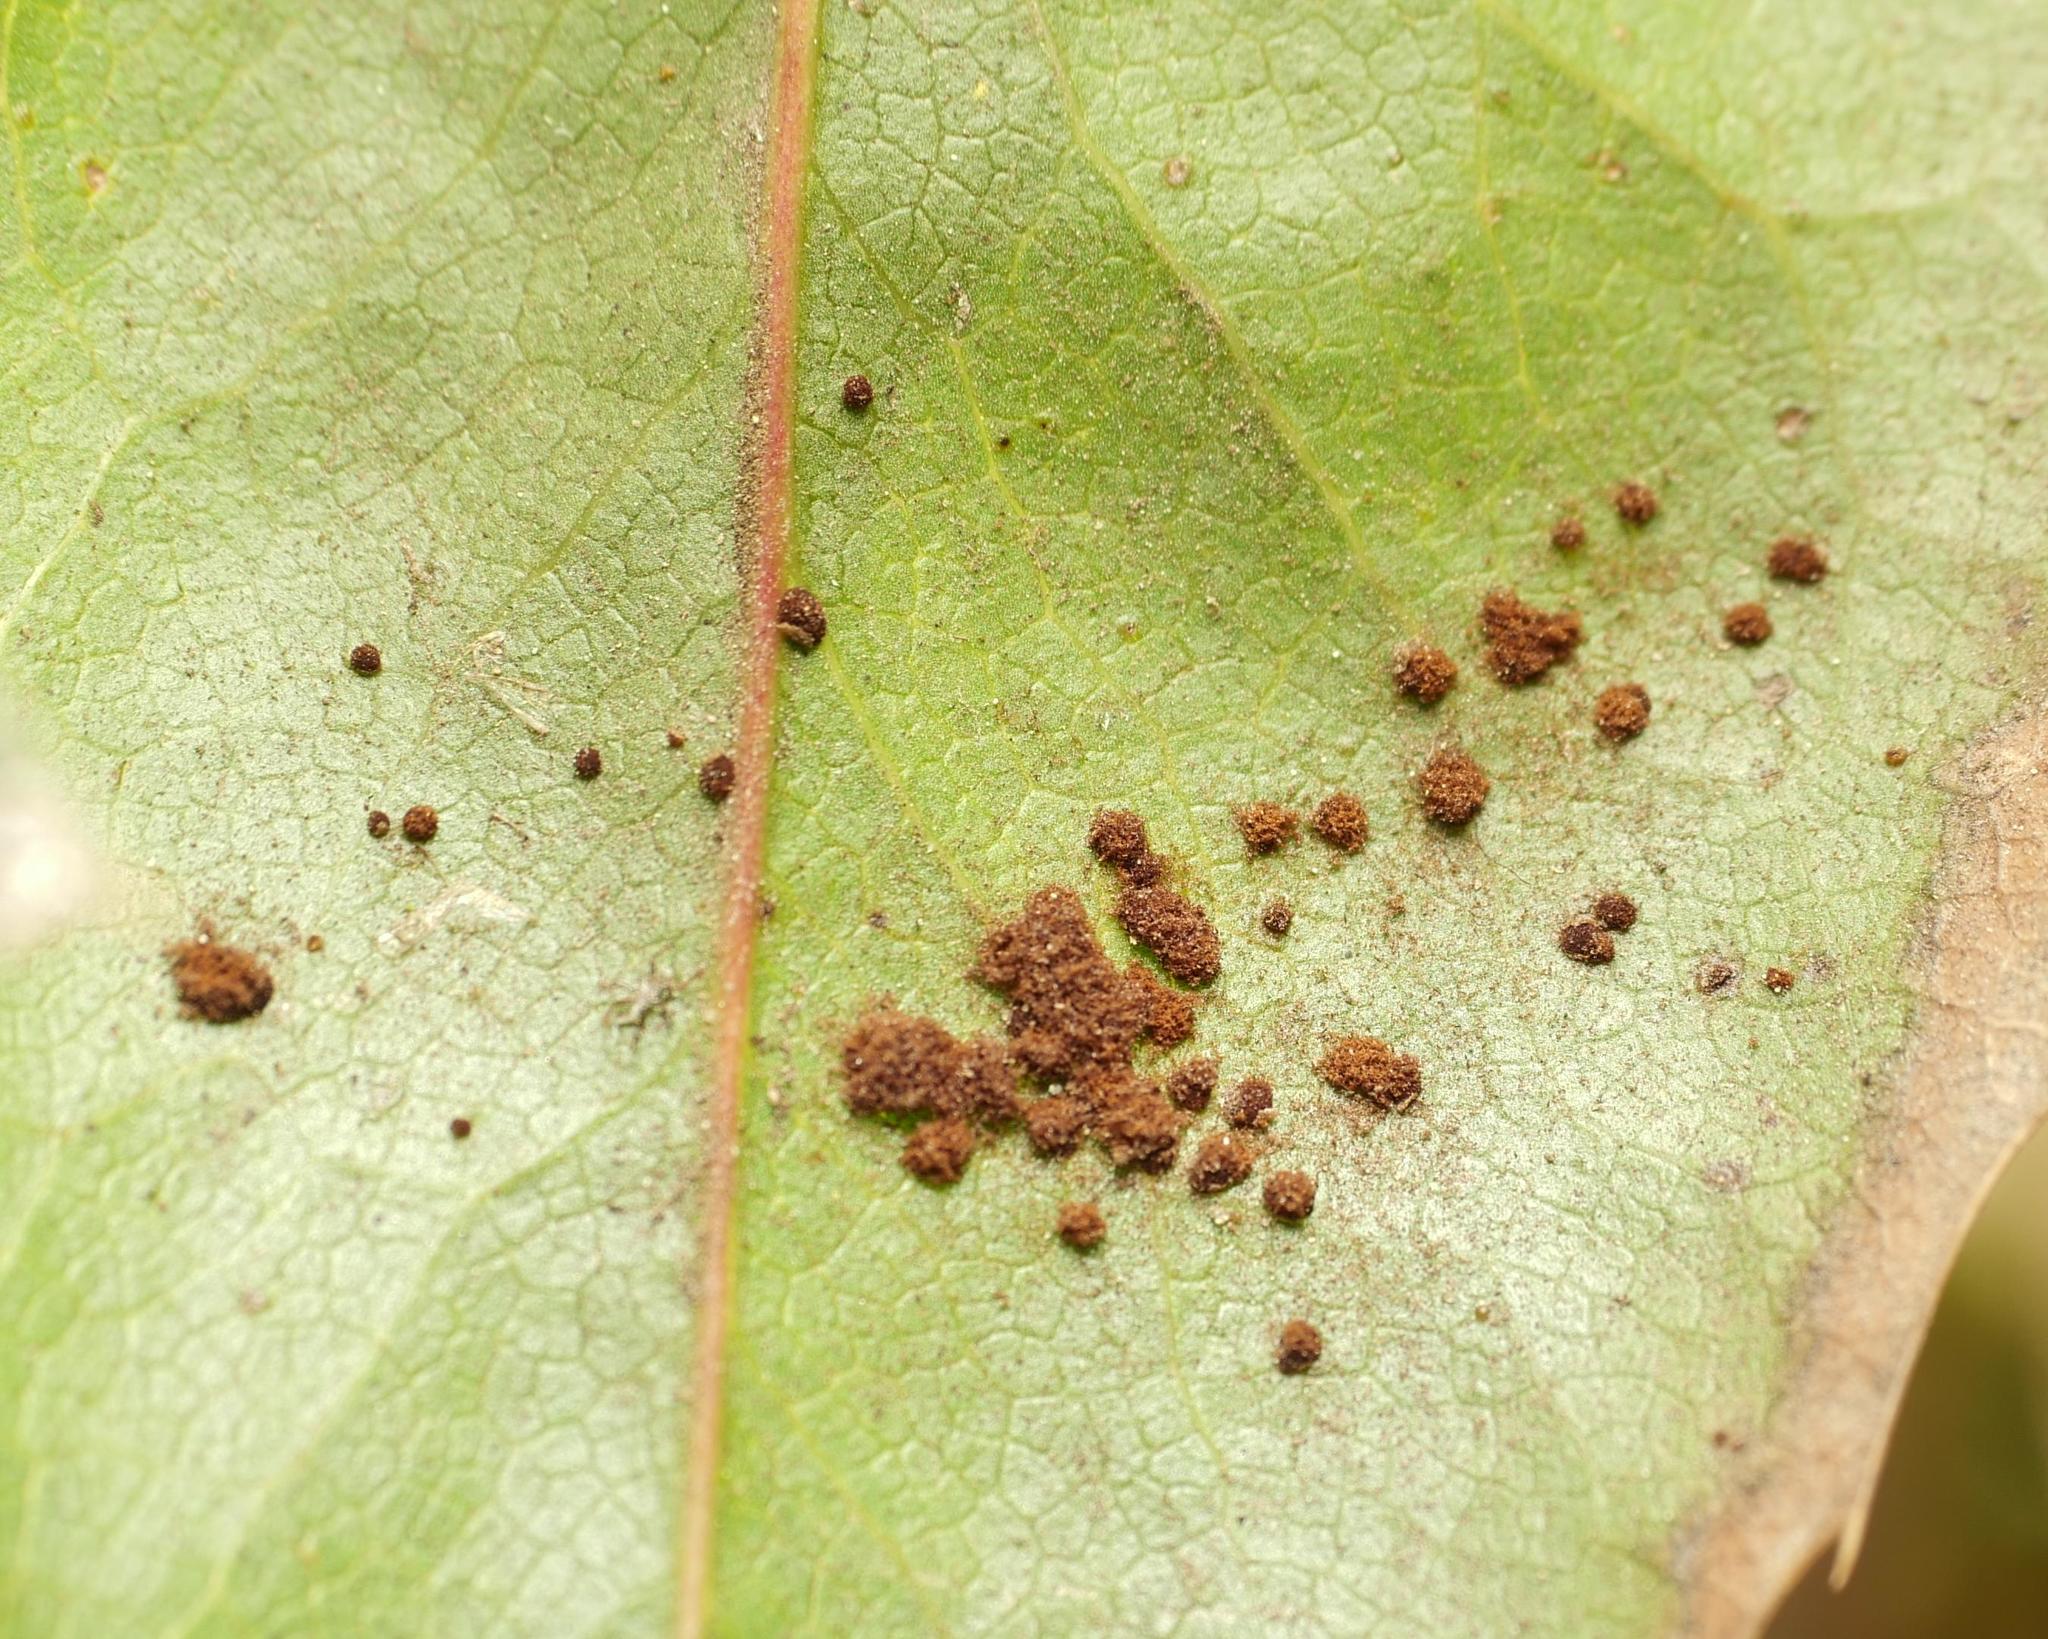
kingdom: Fungi
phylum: Basidiomycota
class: Pucciniomycetes
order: Pucciniales
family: Pucciniaceae
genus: Cumminsiella
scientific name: Cumminsiella mirabilissima
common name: Mahonia rust
